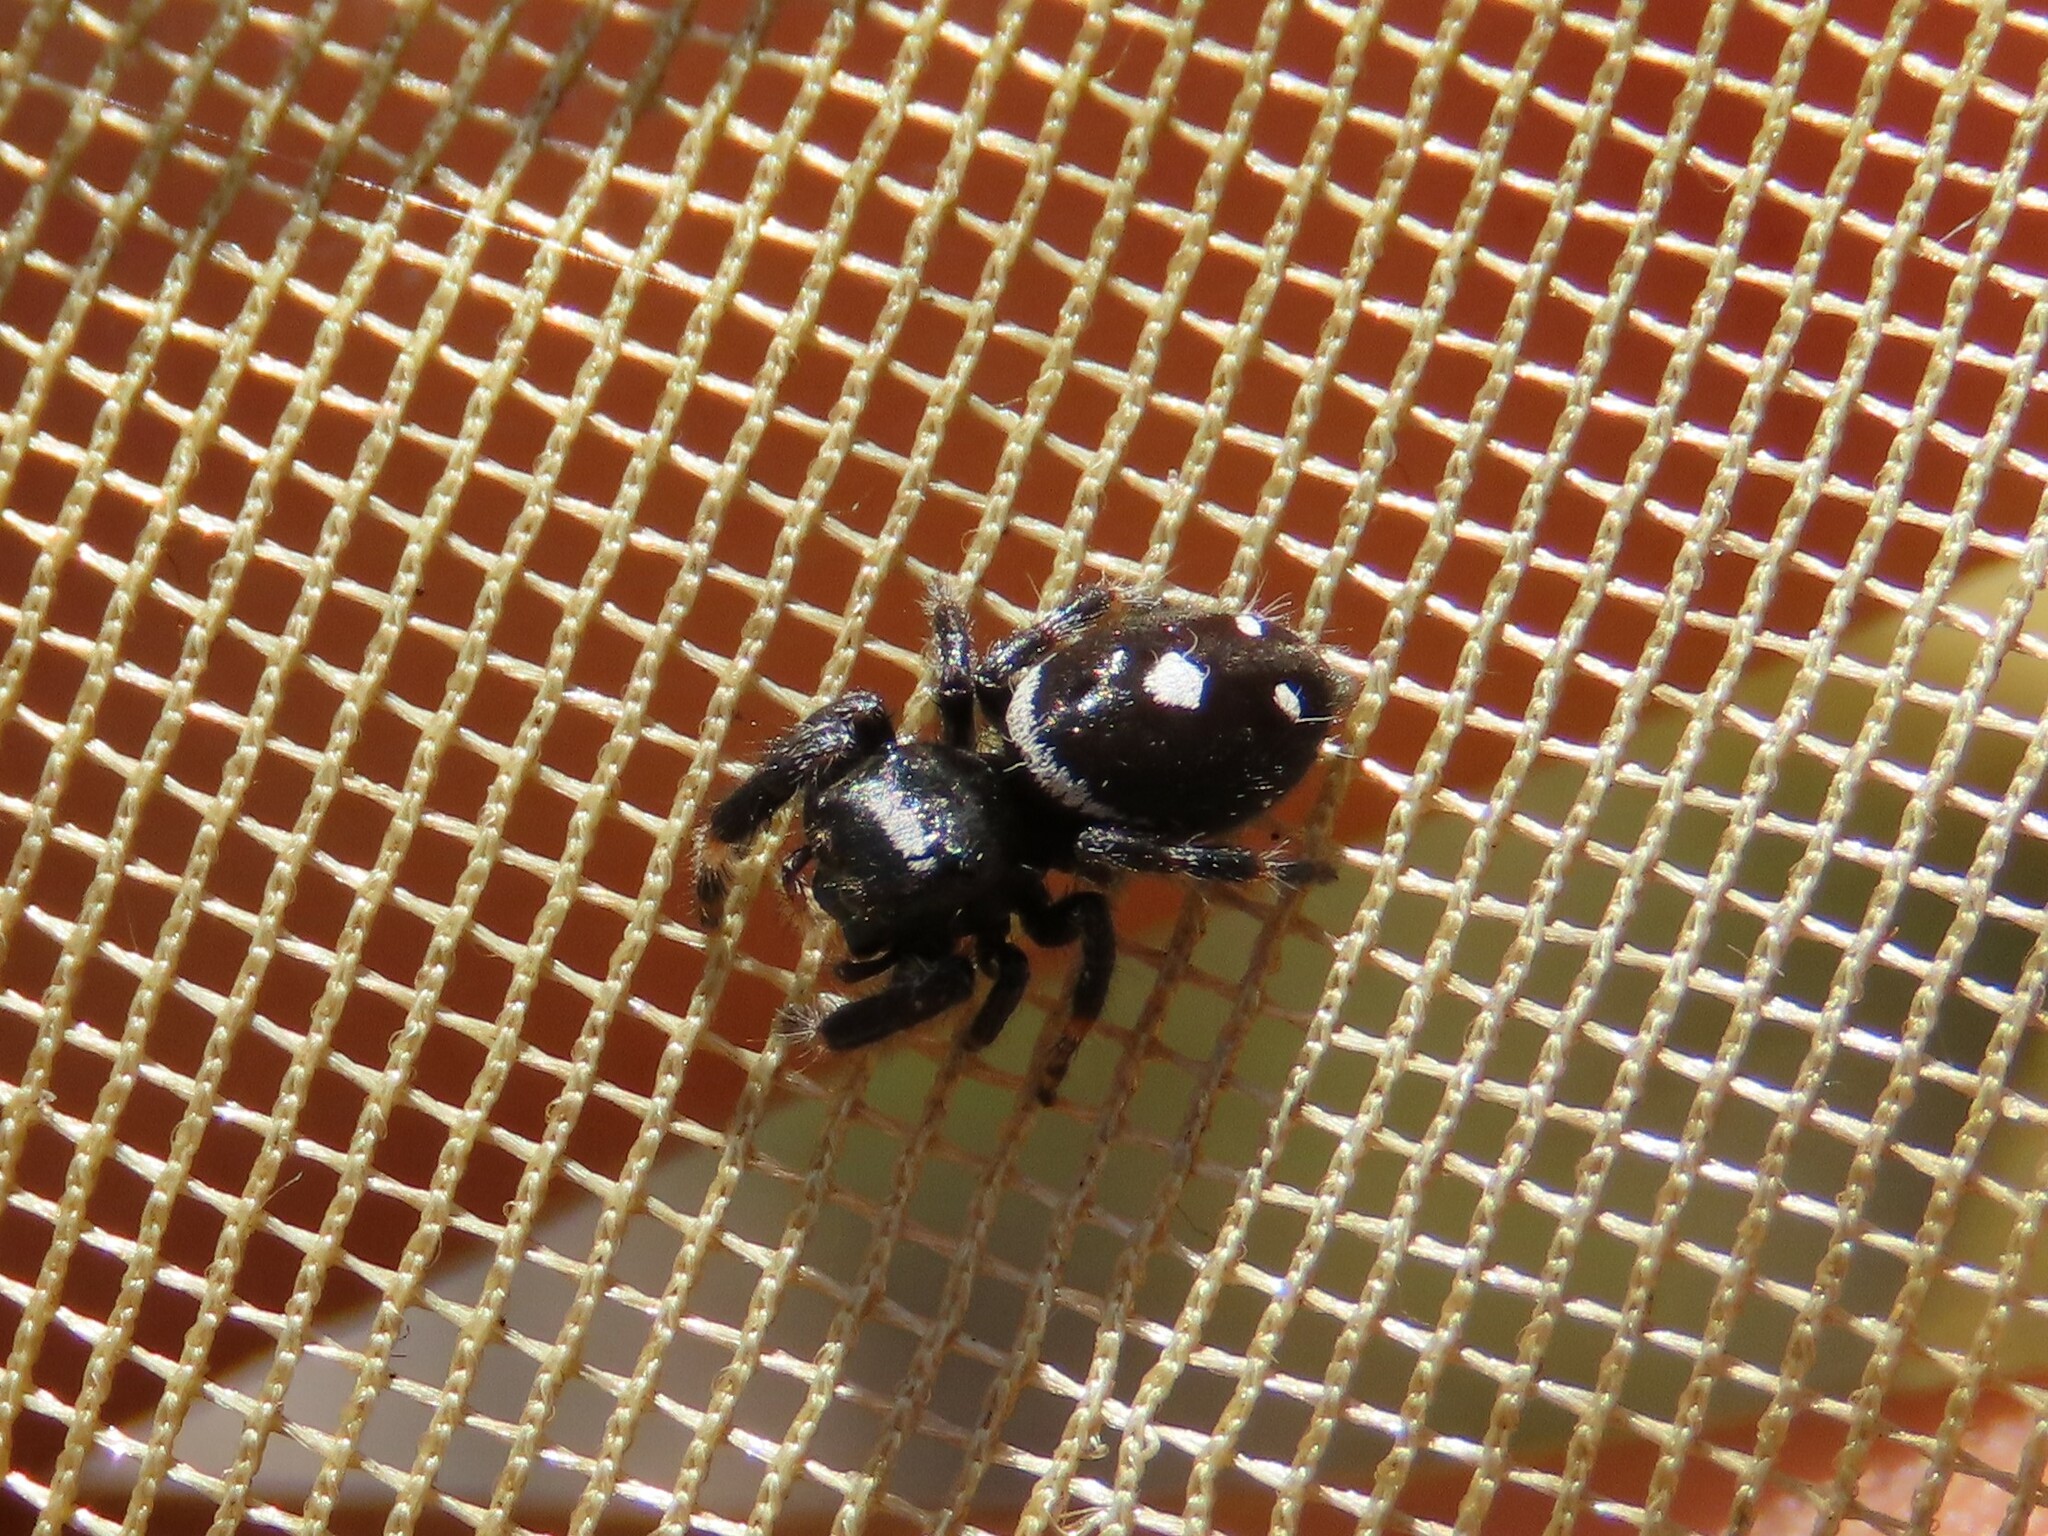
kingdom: Animalia
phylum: Arthropoda
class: Arachnida
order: Araneae
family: Salticidae
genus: Phidippus
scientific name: Phidippus regius
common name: Regal jumper
